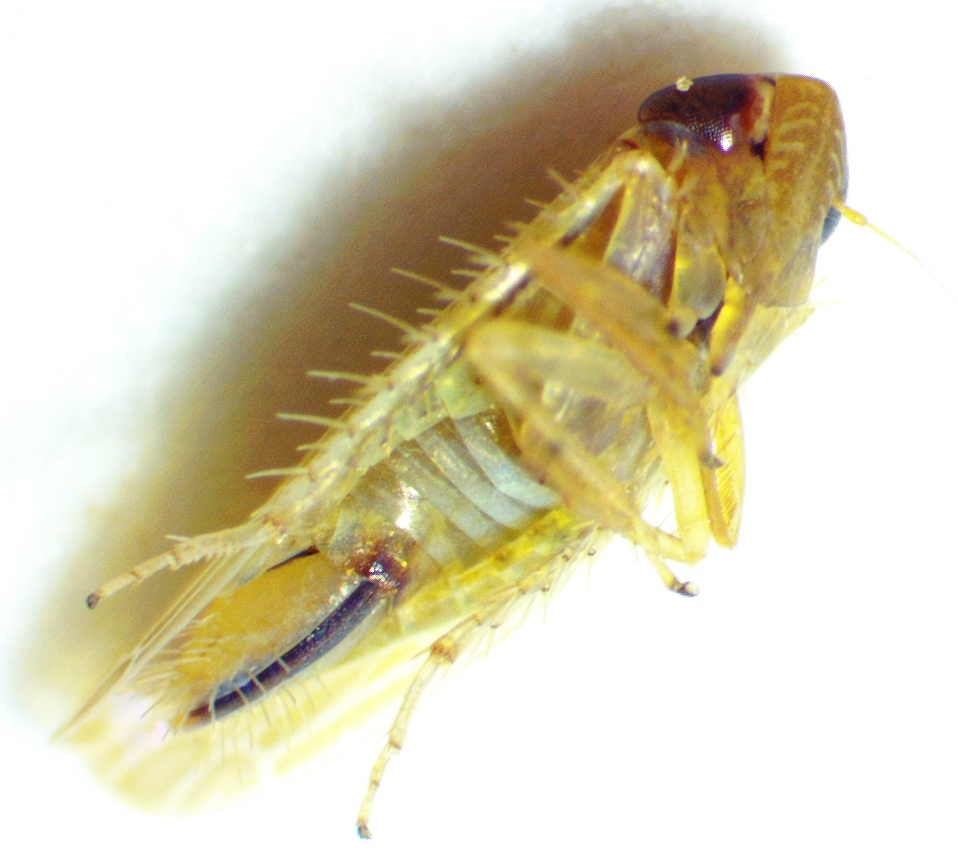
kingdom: Animalia
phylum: Arthropoda
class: Insecta
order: Hemiptera
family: Cicadellidae
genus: Graminella
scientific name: Graminella fitchii
